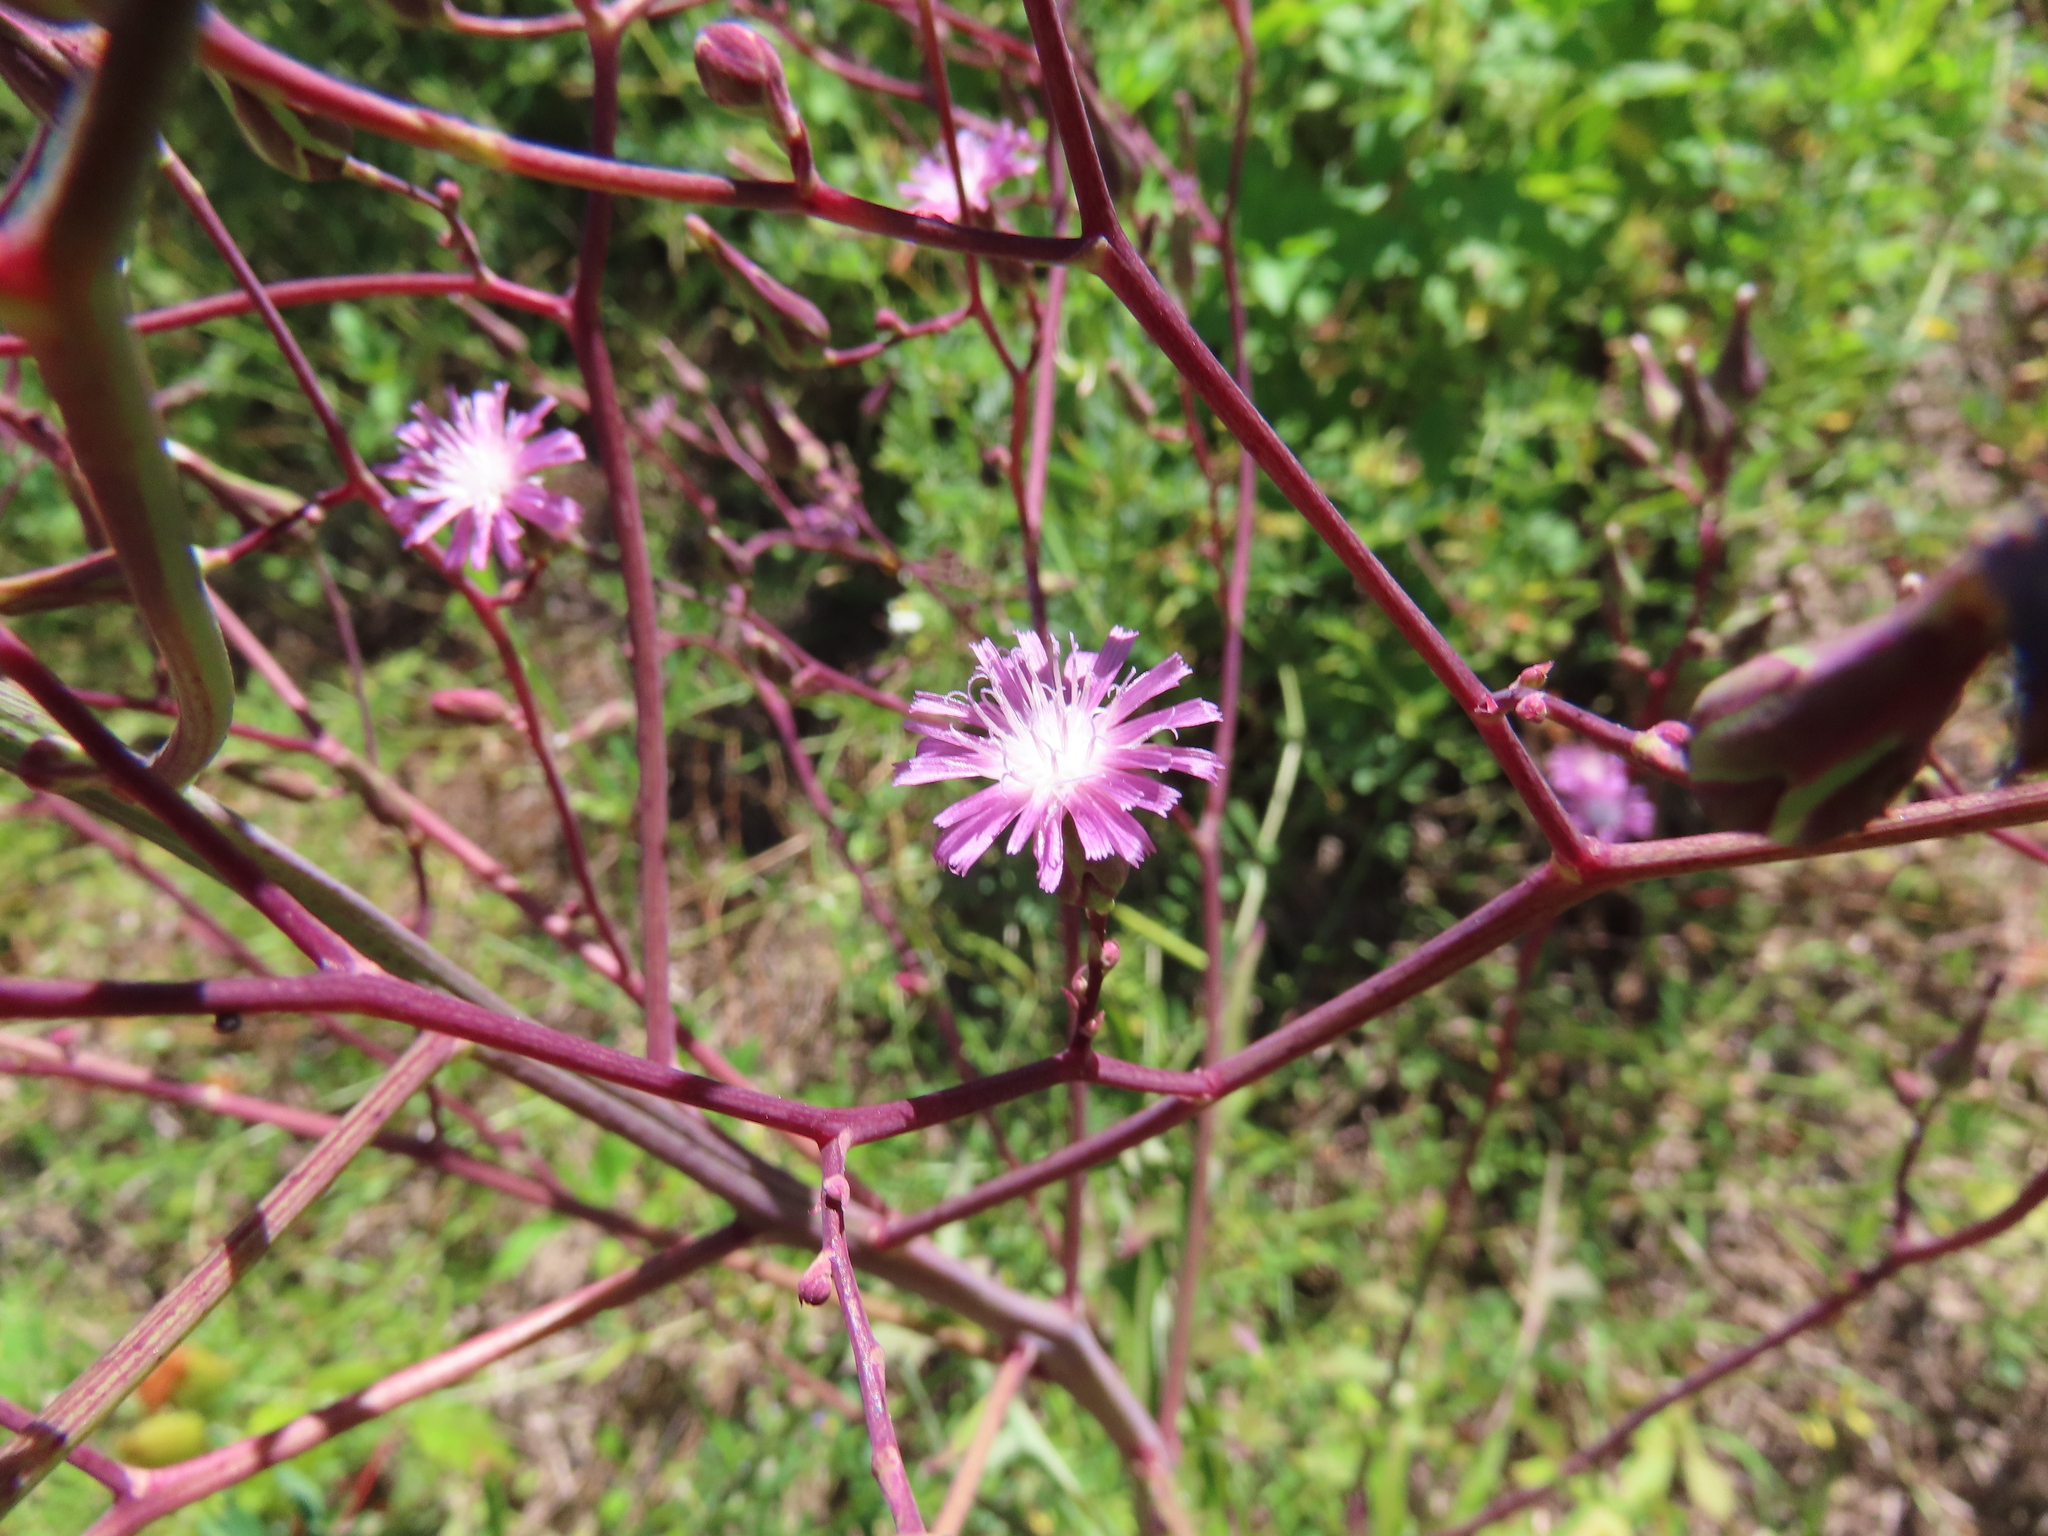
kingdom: Plantae
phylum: Tracheophyta
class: Magnoliopsida
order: Asterales
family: Asteraceae
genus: Lactuca
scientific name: Lactuca graminifolia
